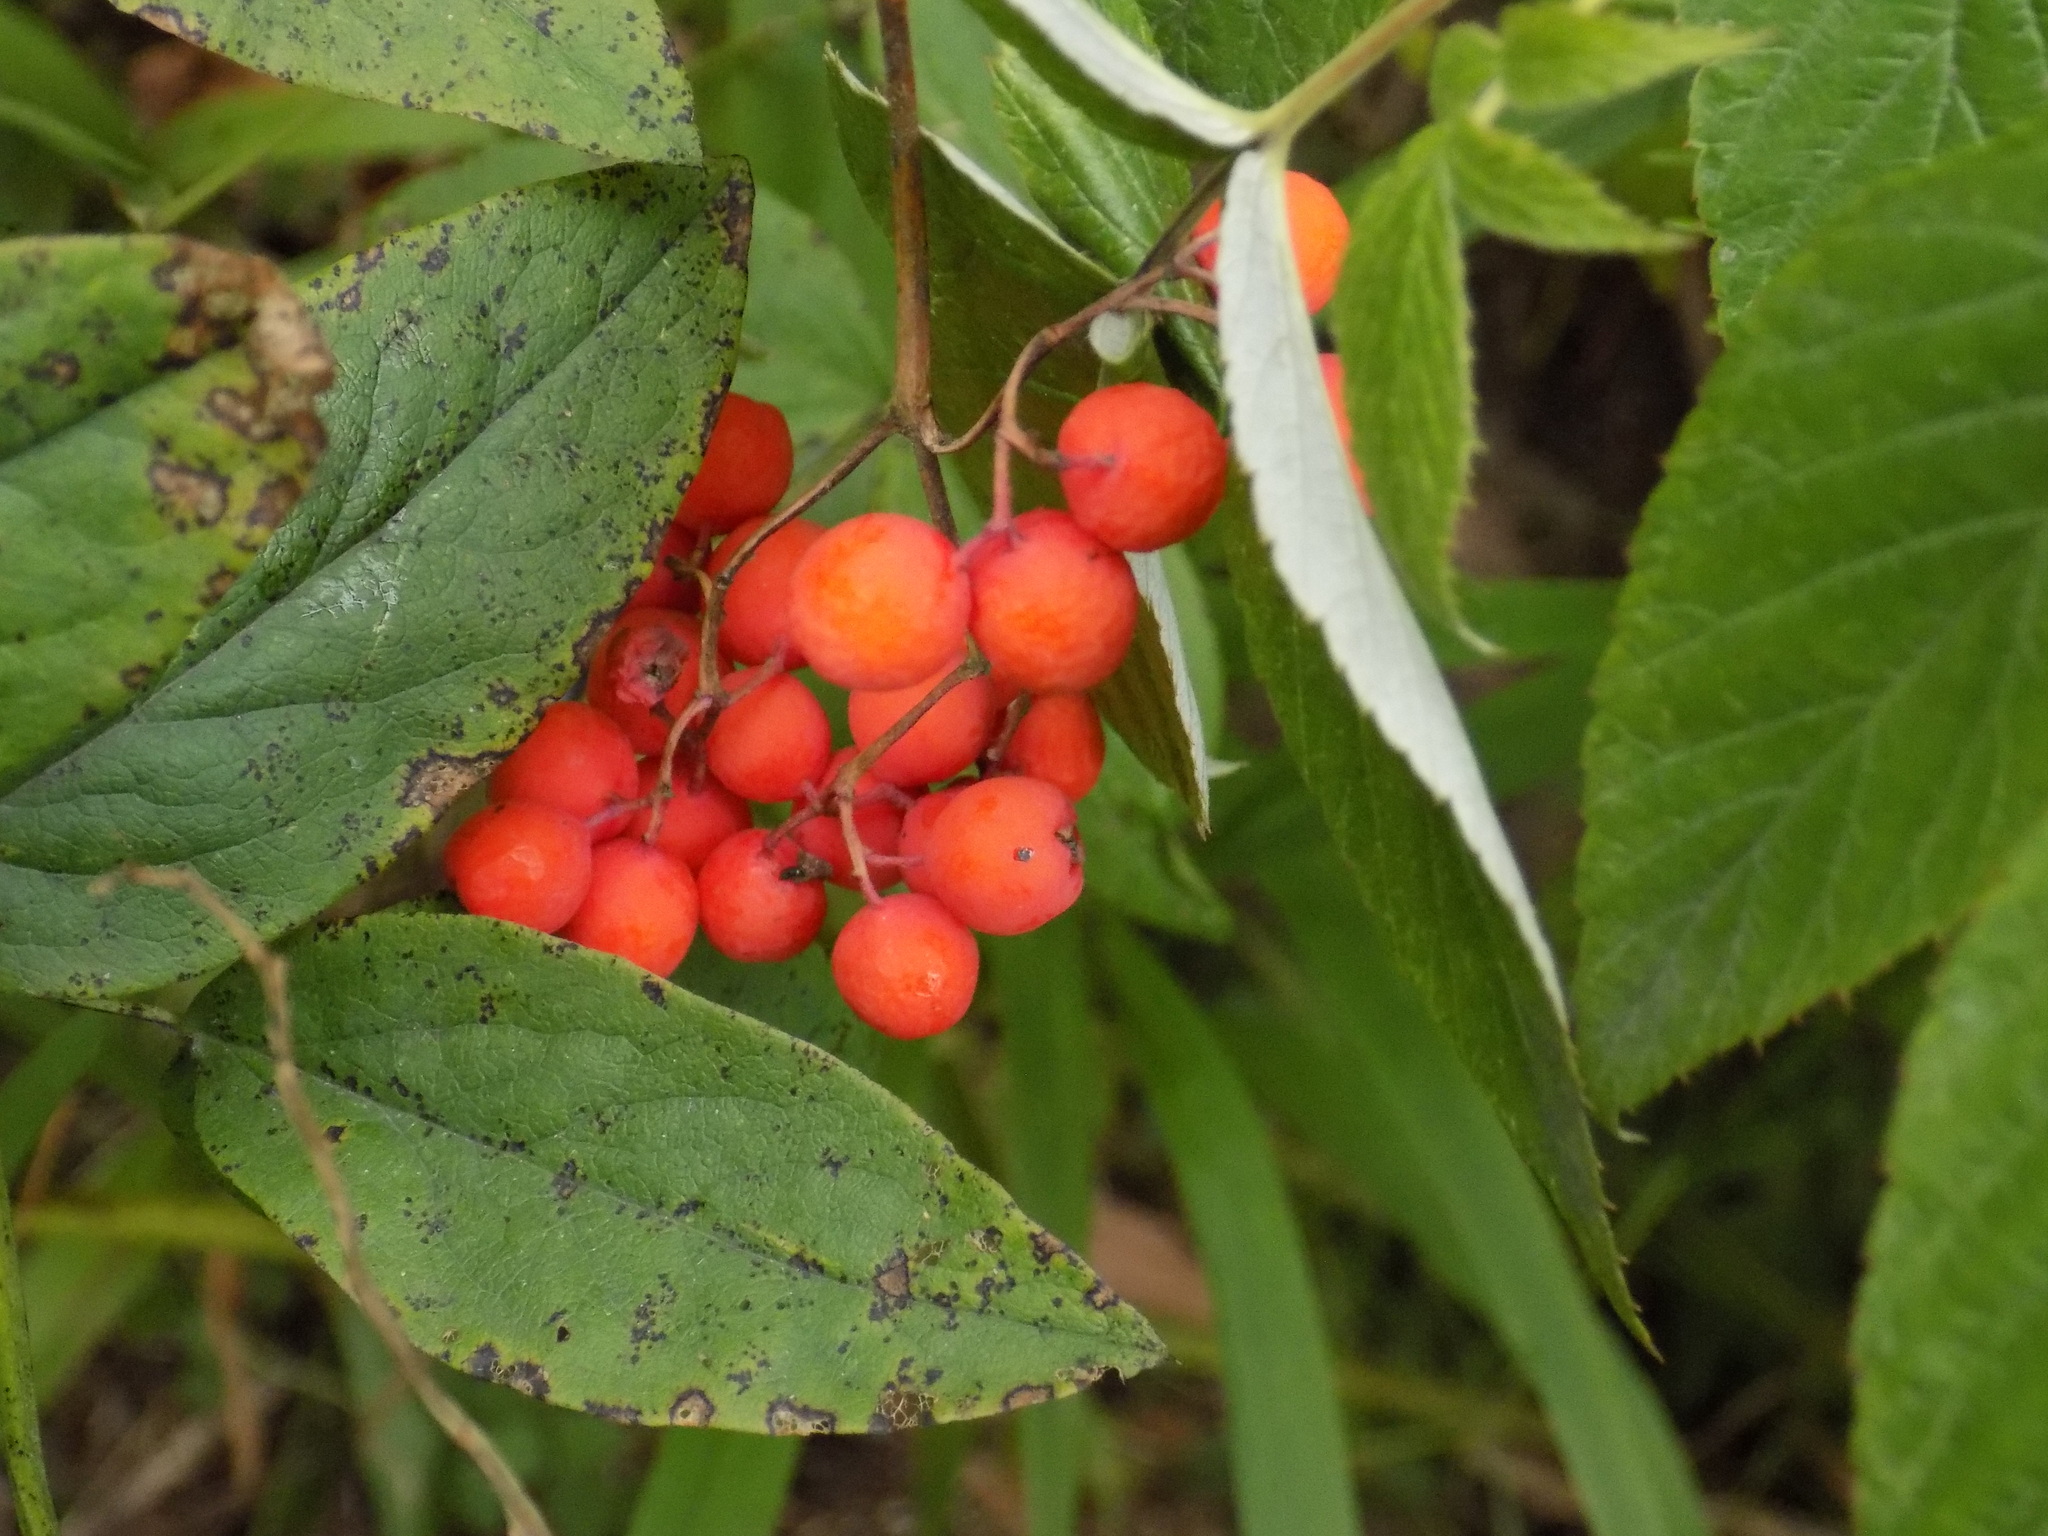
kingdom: Plantae
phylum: Tracheophyta
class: Magnoliopsida
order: Dipsacales
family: Viburnaceae
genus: Sambucus
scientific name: Sambucus sibirica
